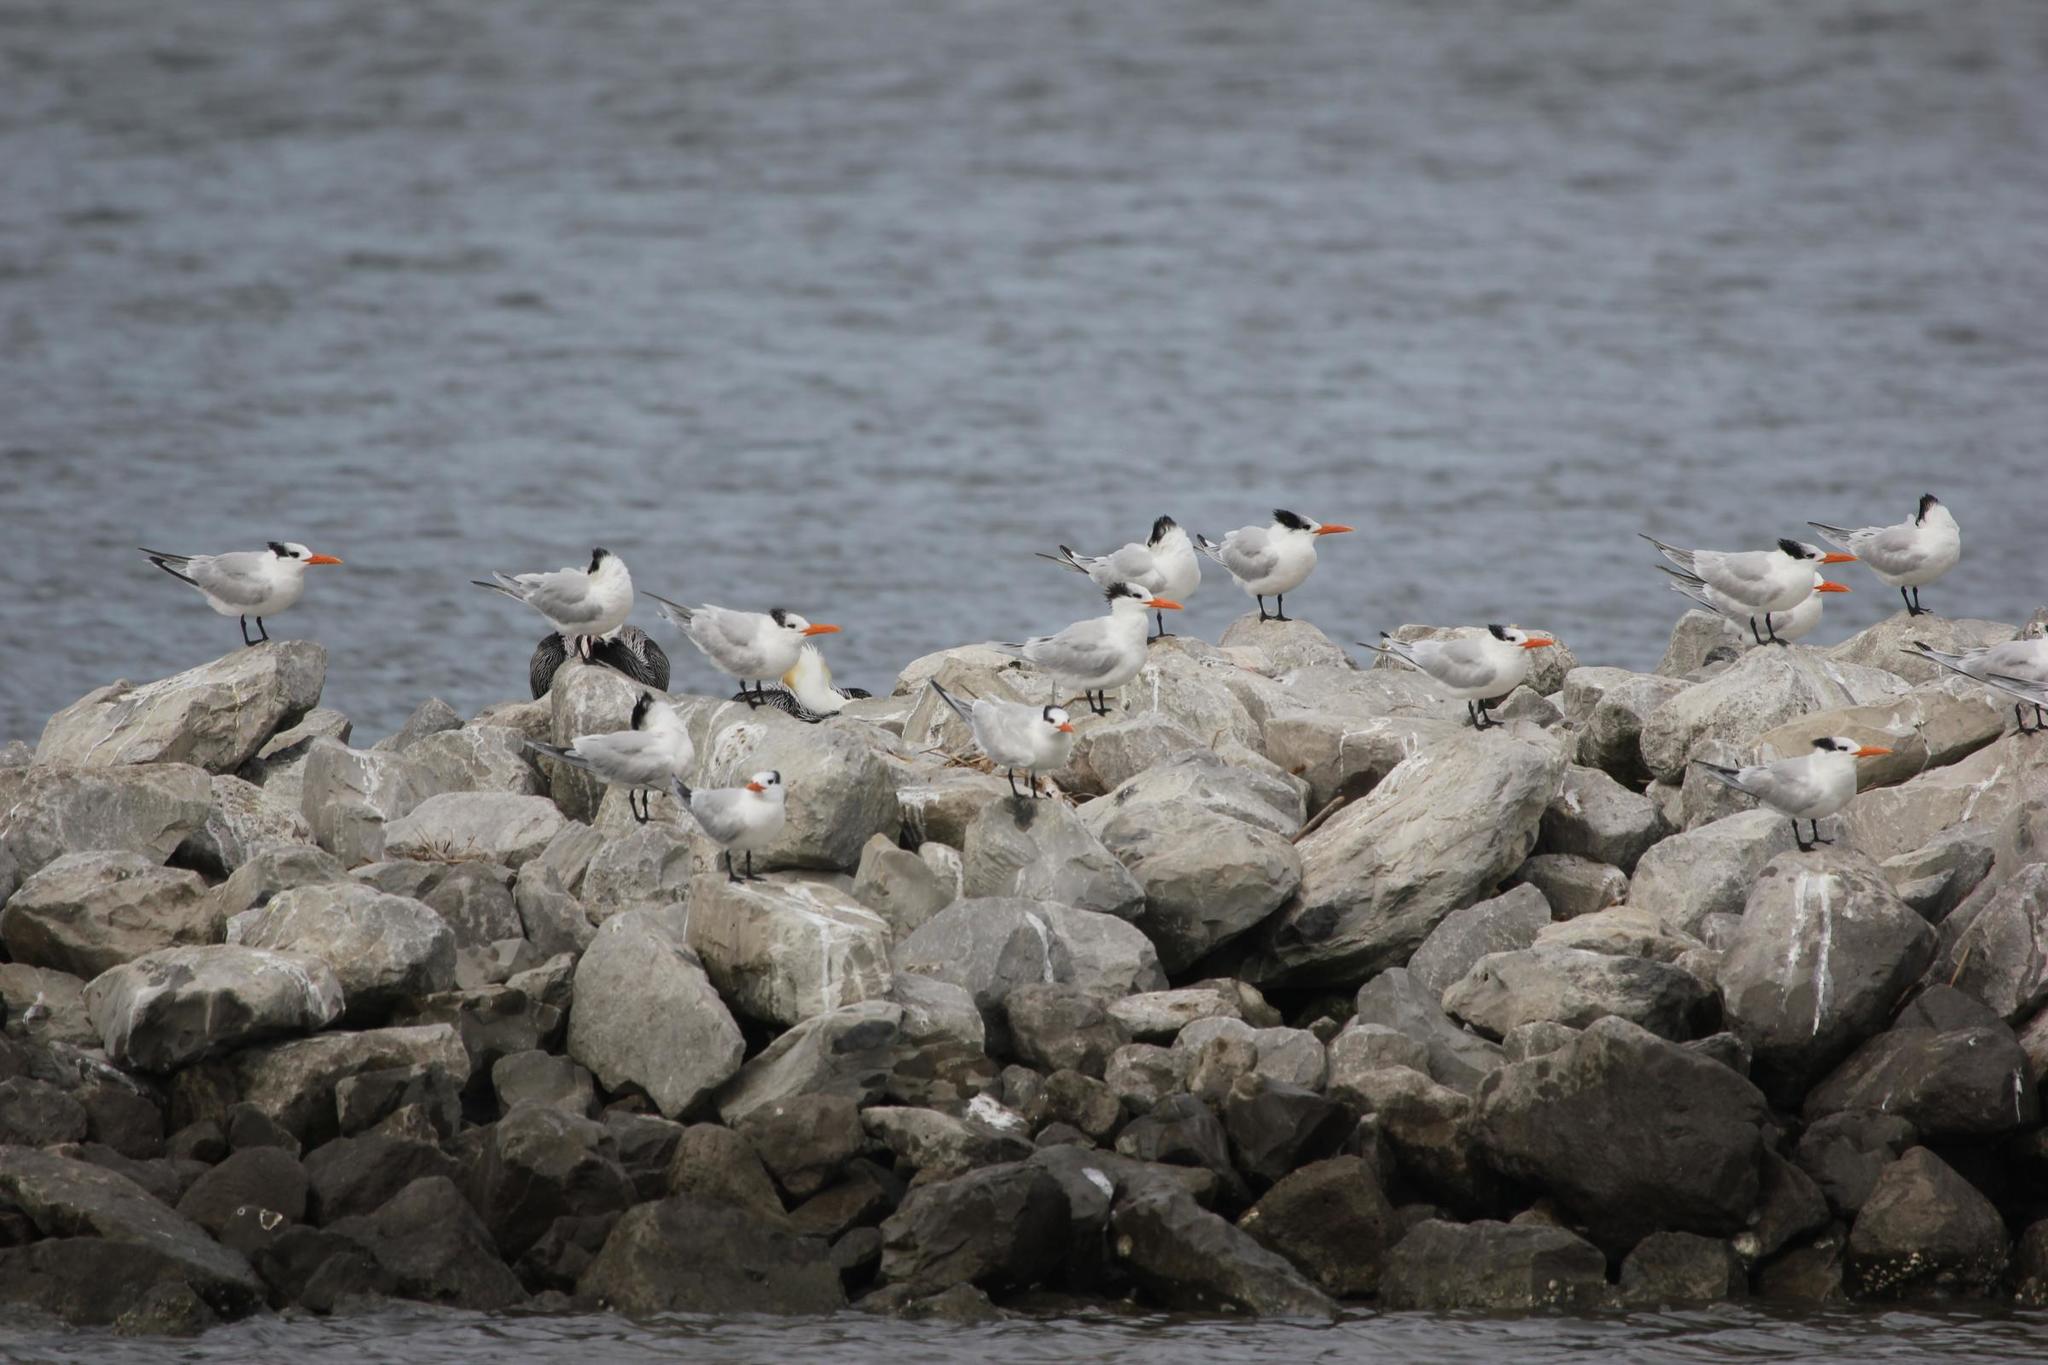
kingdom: Animalia
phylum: Chordata
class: Aves
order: Charadriiformes
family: Laridae
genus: Thalasseus
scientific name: Thalasseus maximus
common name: Royal tern
